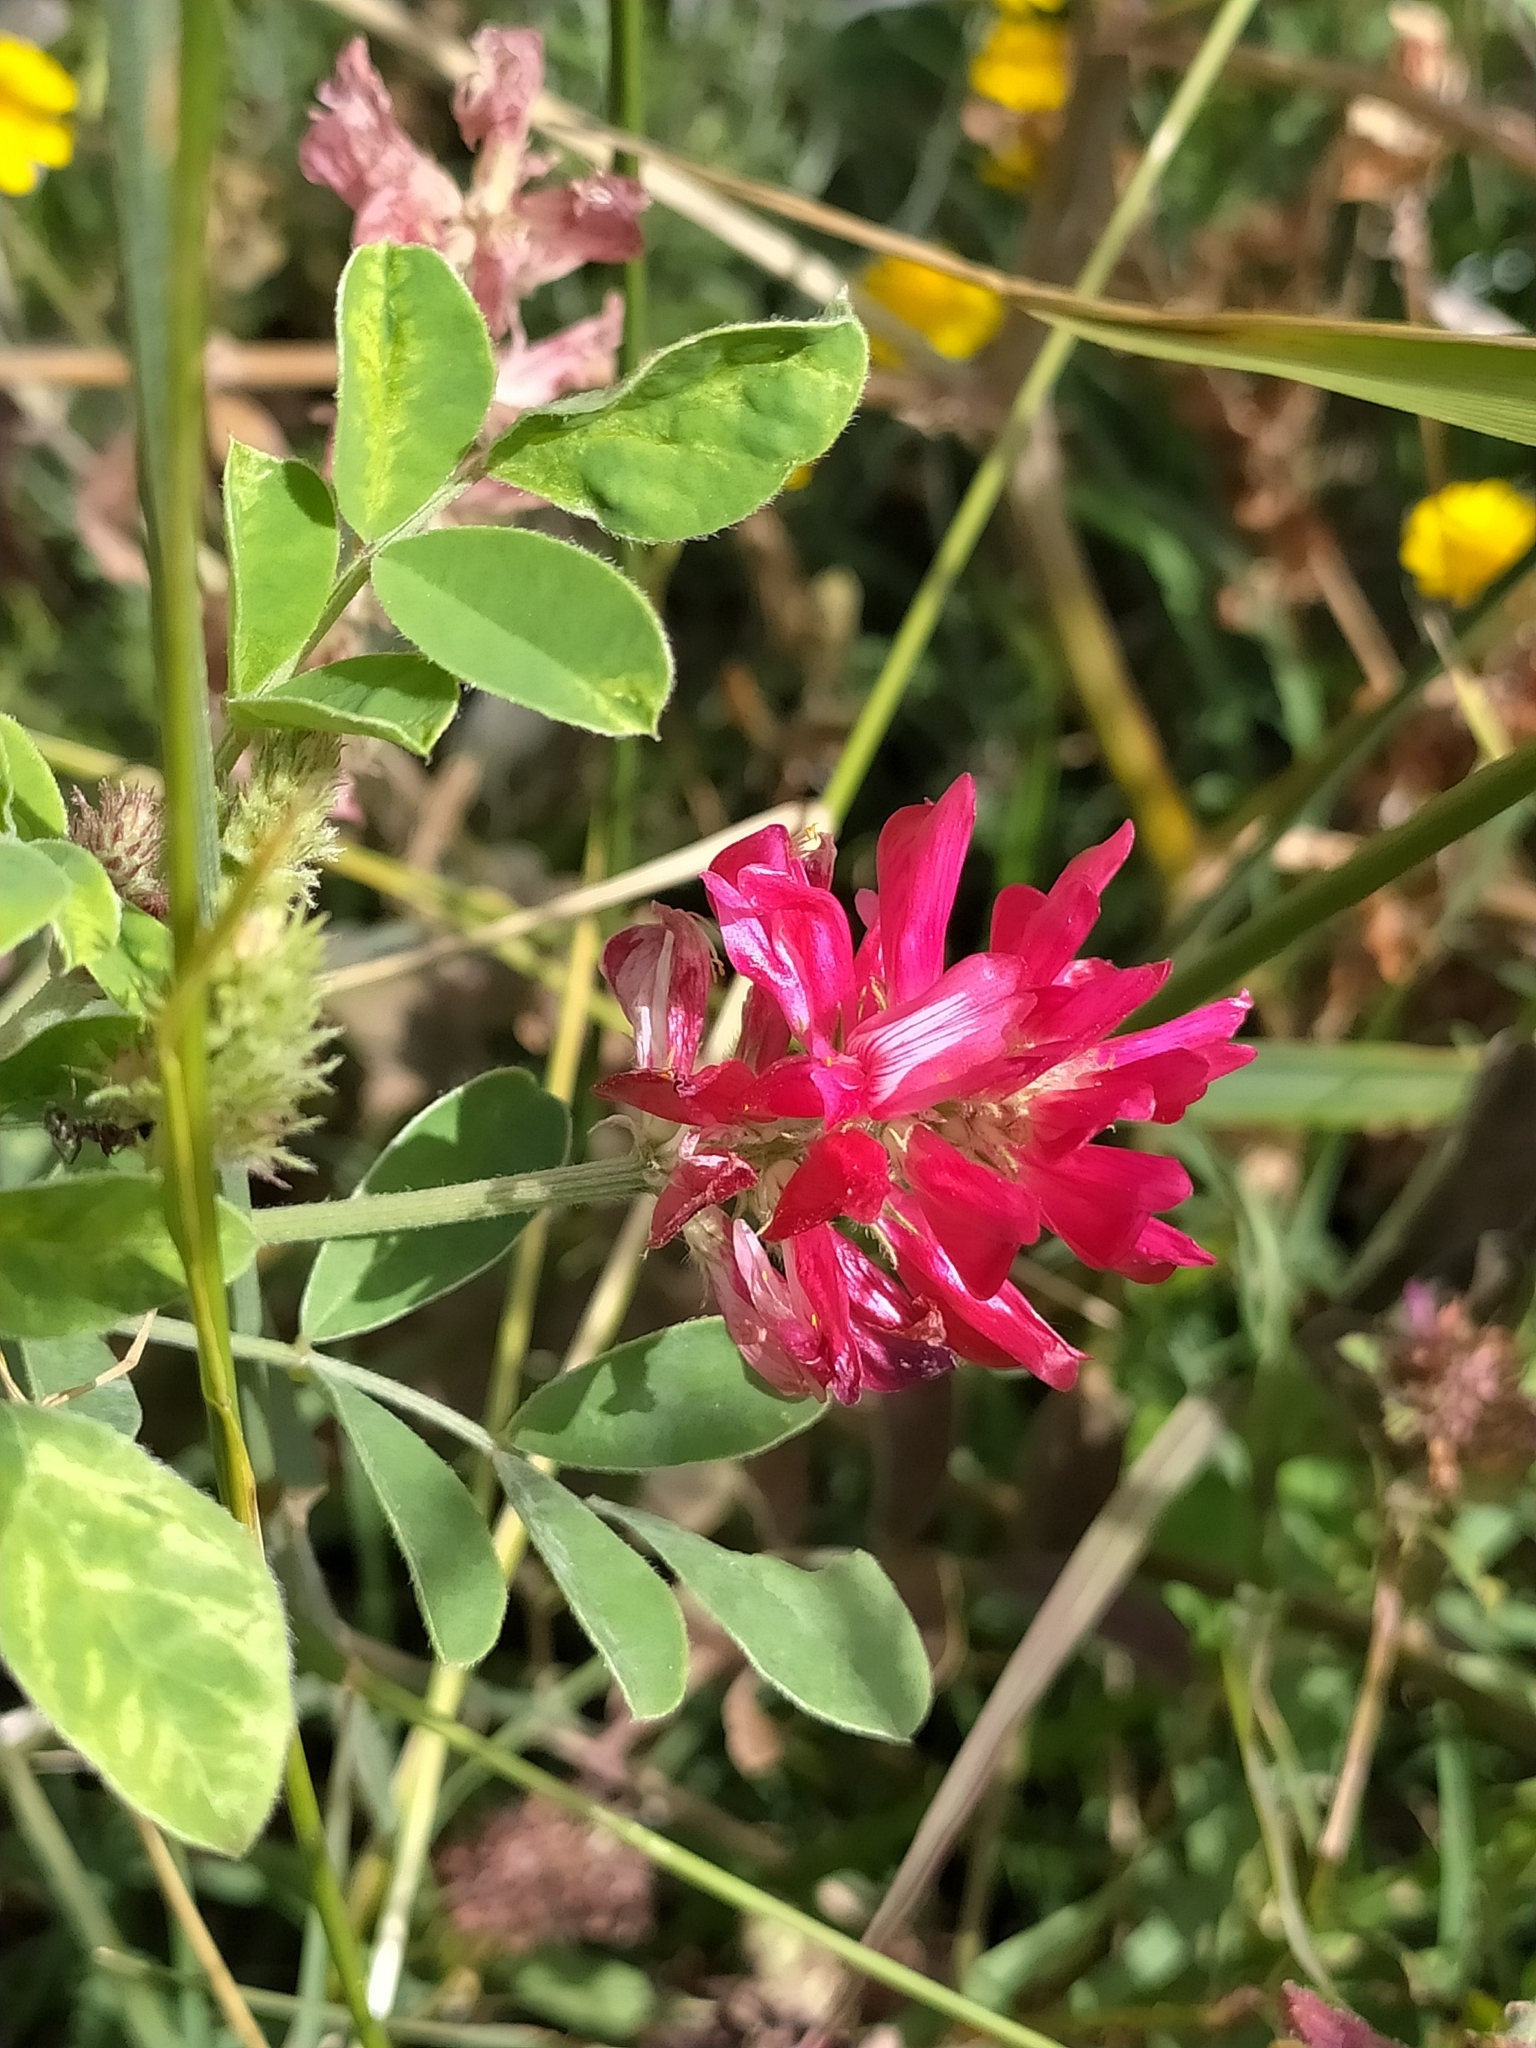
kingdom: Plantae
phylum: Tracheophyta
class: Magnoliopsida
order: Fabales
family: Fabaceae
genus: Sulla
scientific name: Sulla coronaria
